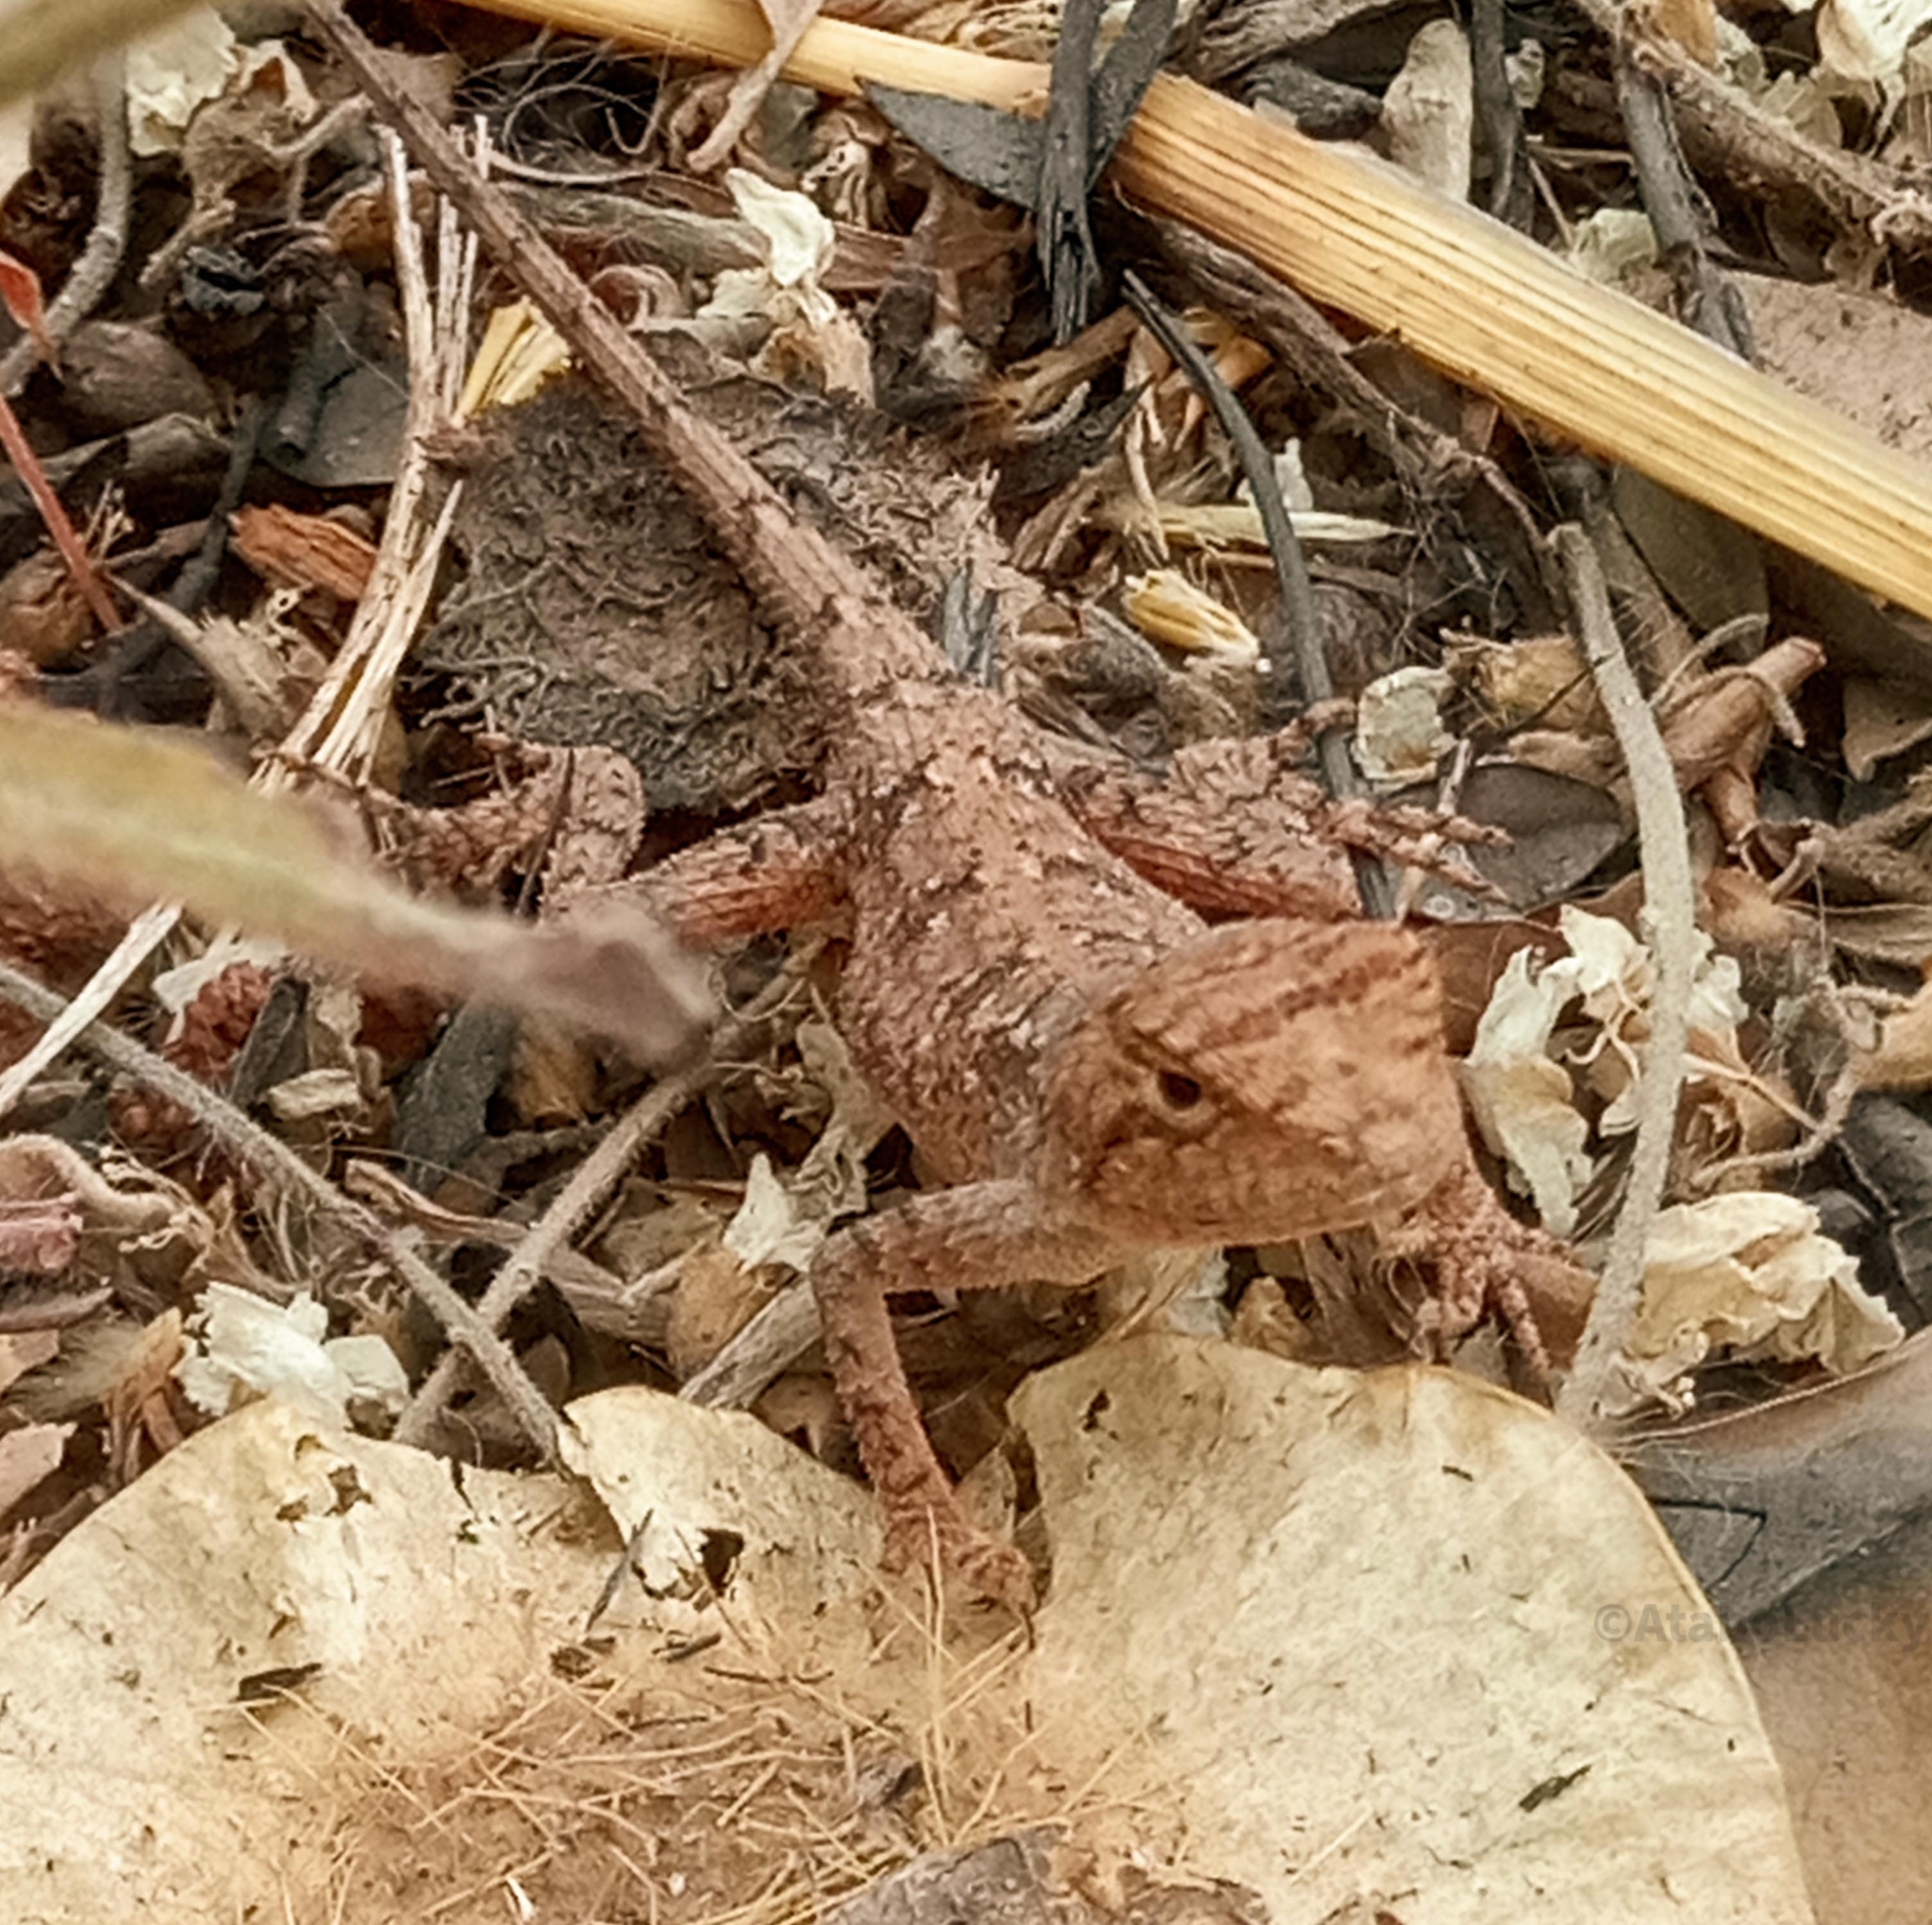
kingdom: Animalia
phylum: Chordata
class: Squamata
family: Agamidae
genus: Agama
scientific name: Agama sankaranica
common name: Senegal agama
